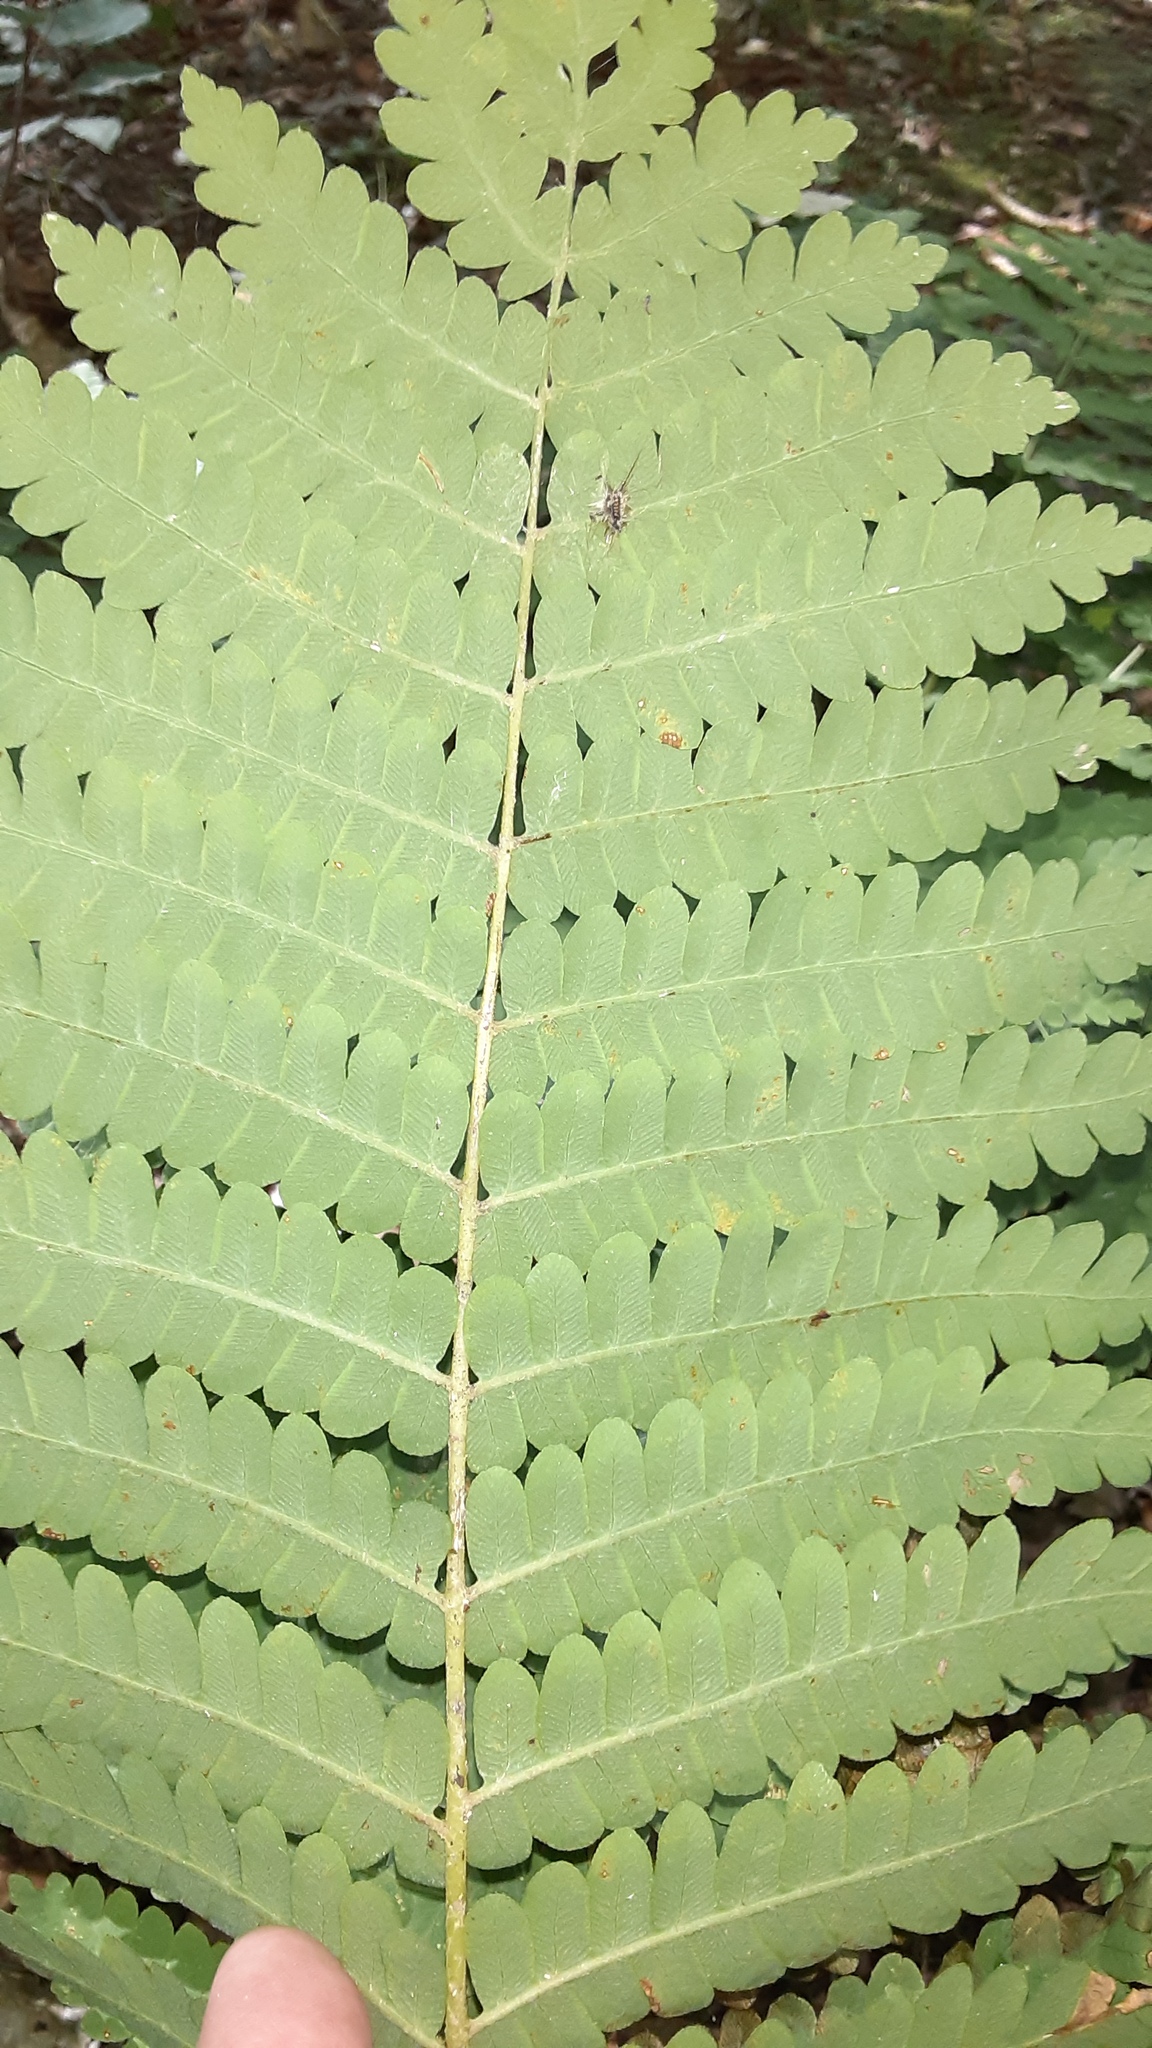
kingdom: Plantae
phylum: Tracheophyta
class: Polypodiopsida
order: Osmundales
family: Osmundaceae
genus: Claytosmunda
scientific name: Claytosmunda claytoniana
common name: Clayton's fern
